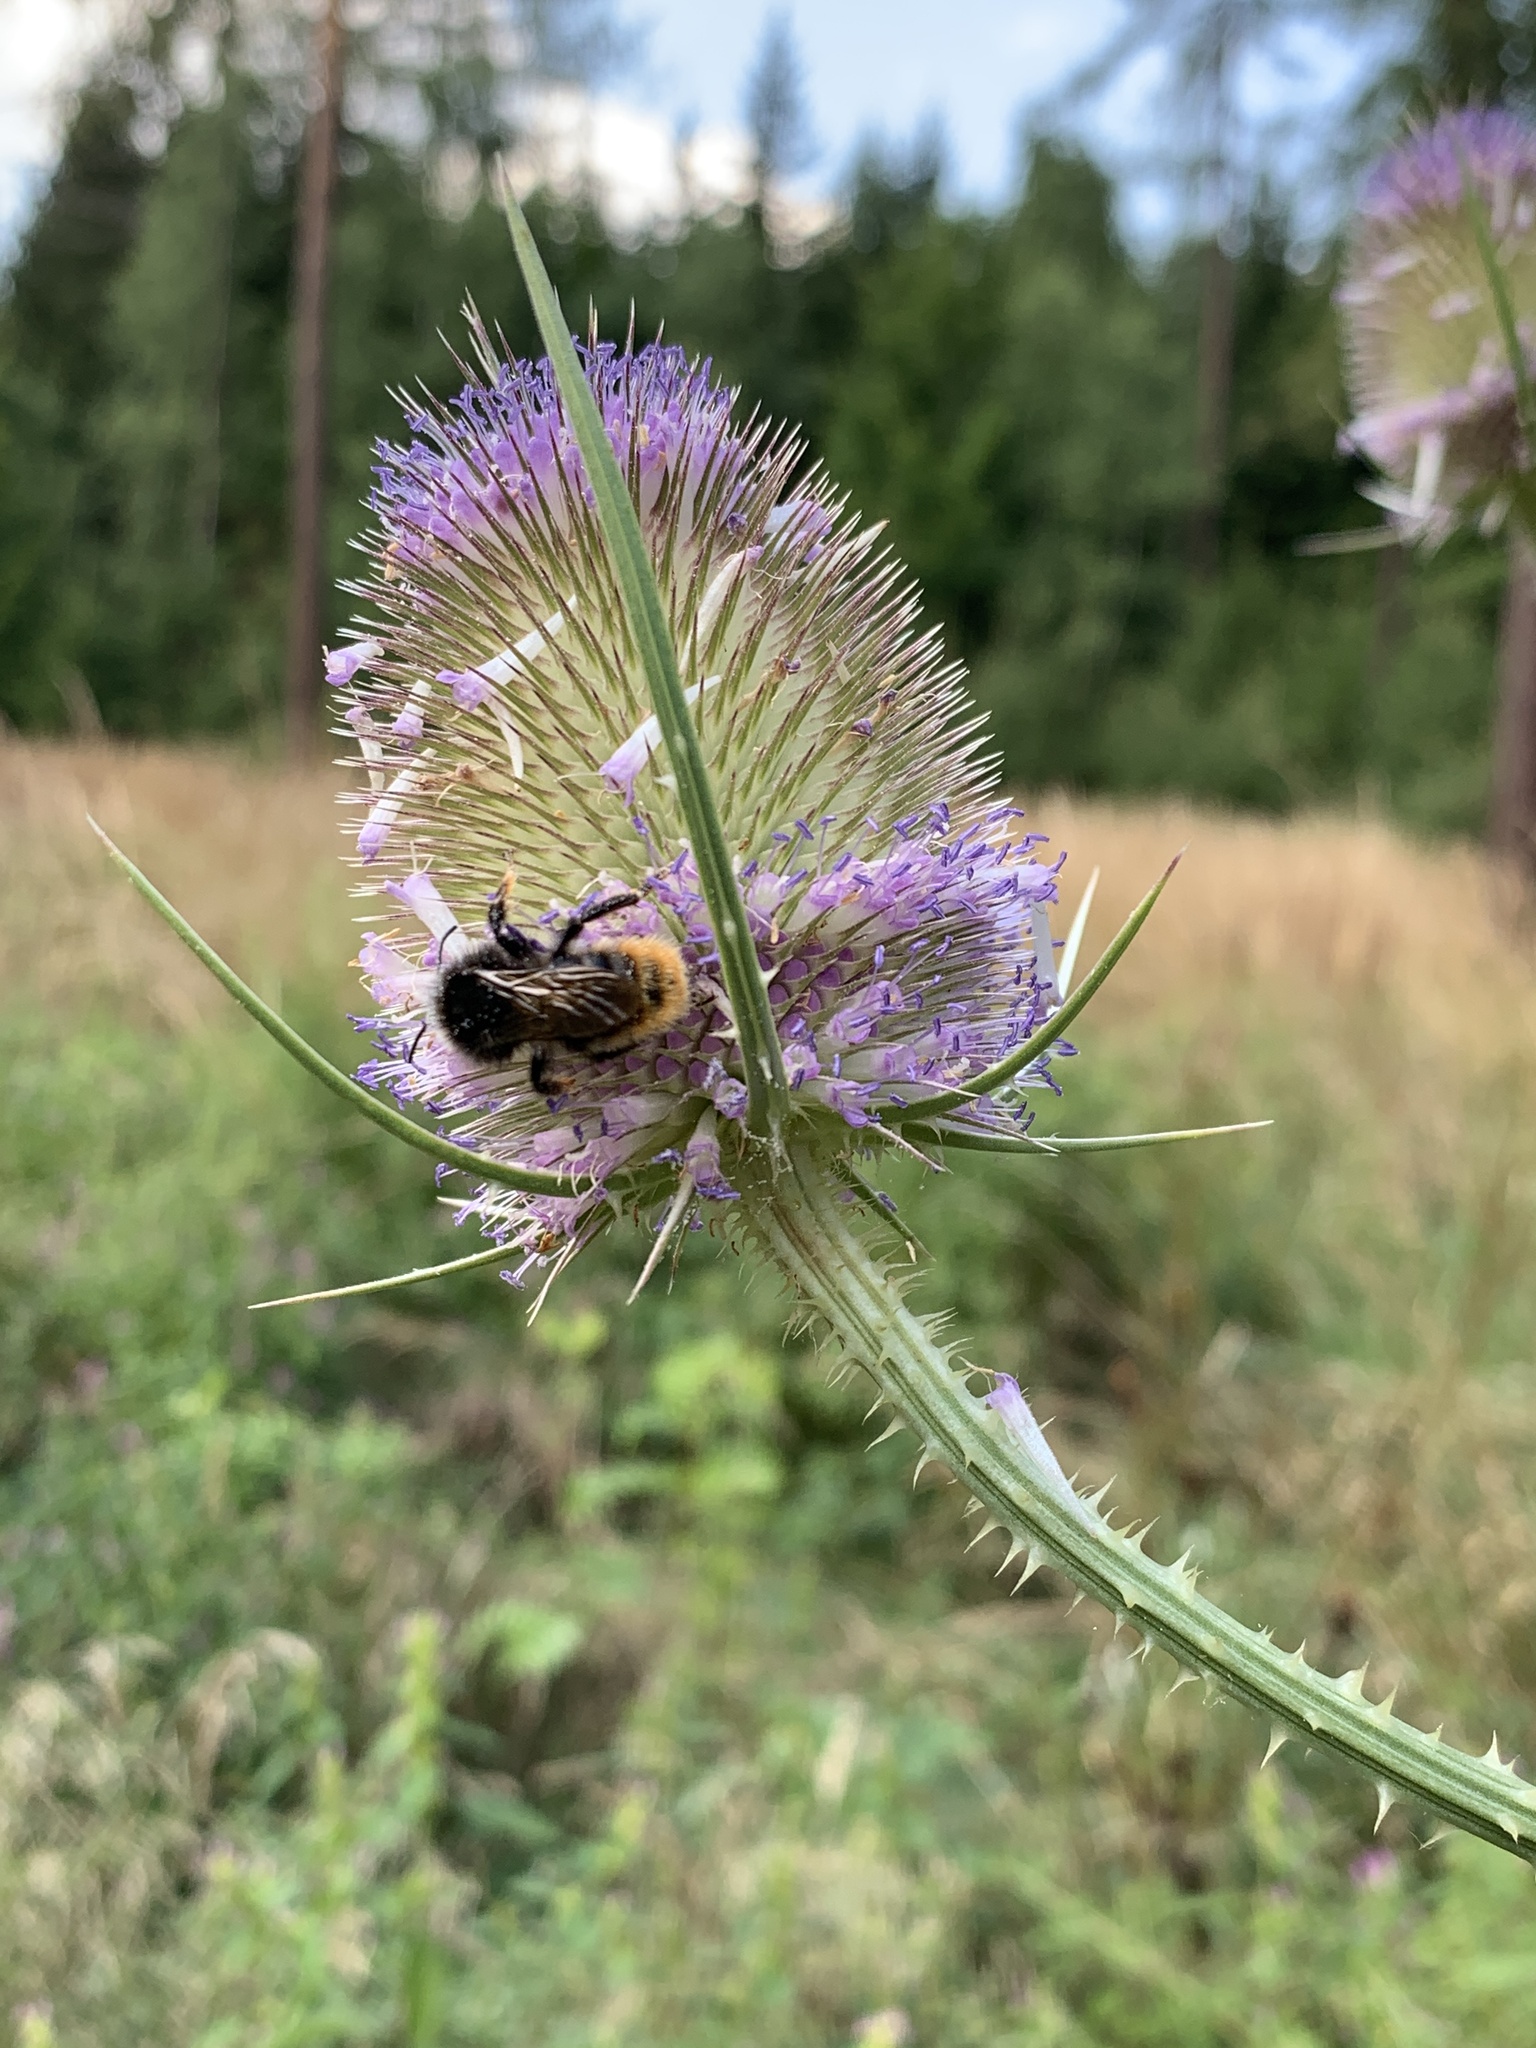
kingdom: Plantae
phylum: Tracheophyta
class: Magnoliopsida
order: Dipsacales
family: Caprifoliaceae
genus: Dipsacus
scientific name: Dipsacus fullonum
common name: Teasel
